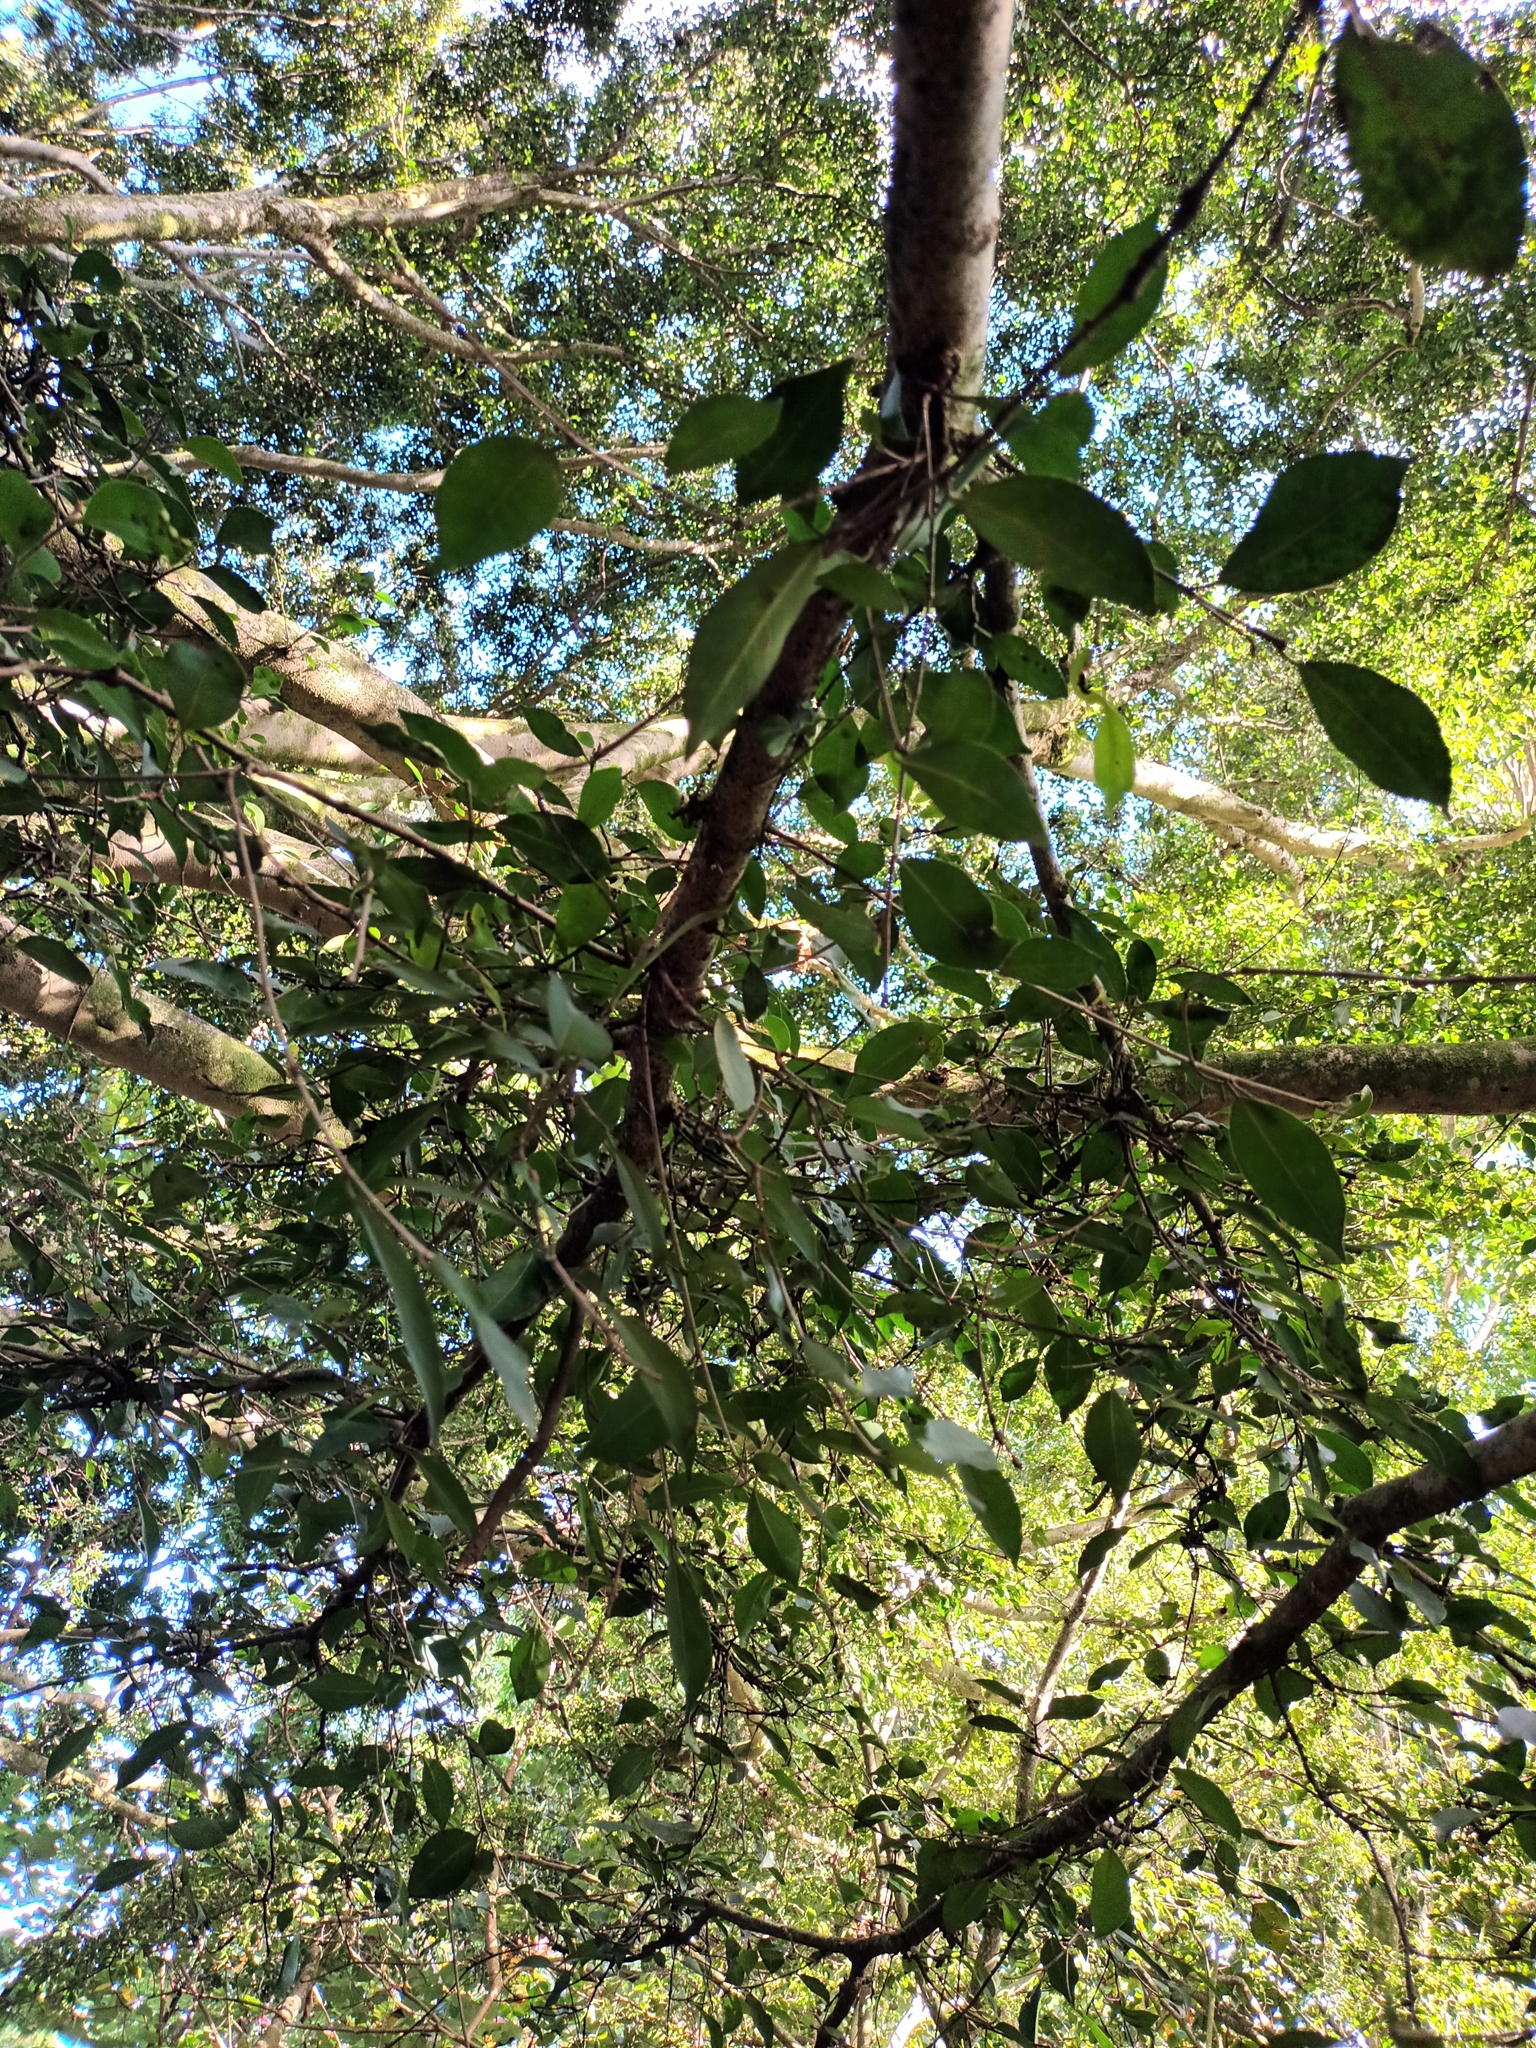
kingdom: Plantae
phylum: Tracheophyta
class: Magnoliopsida
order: Rosales
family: Moraceae
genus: Ficus
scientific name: Ficus microcarpa
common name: Chinese banyan
